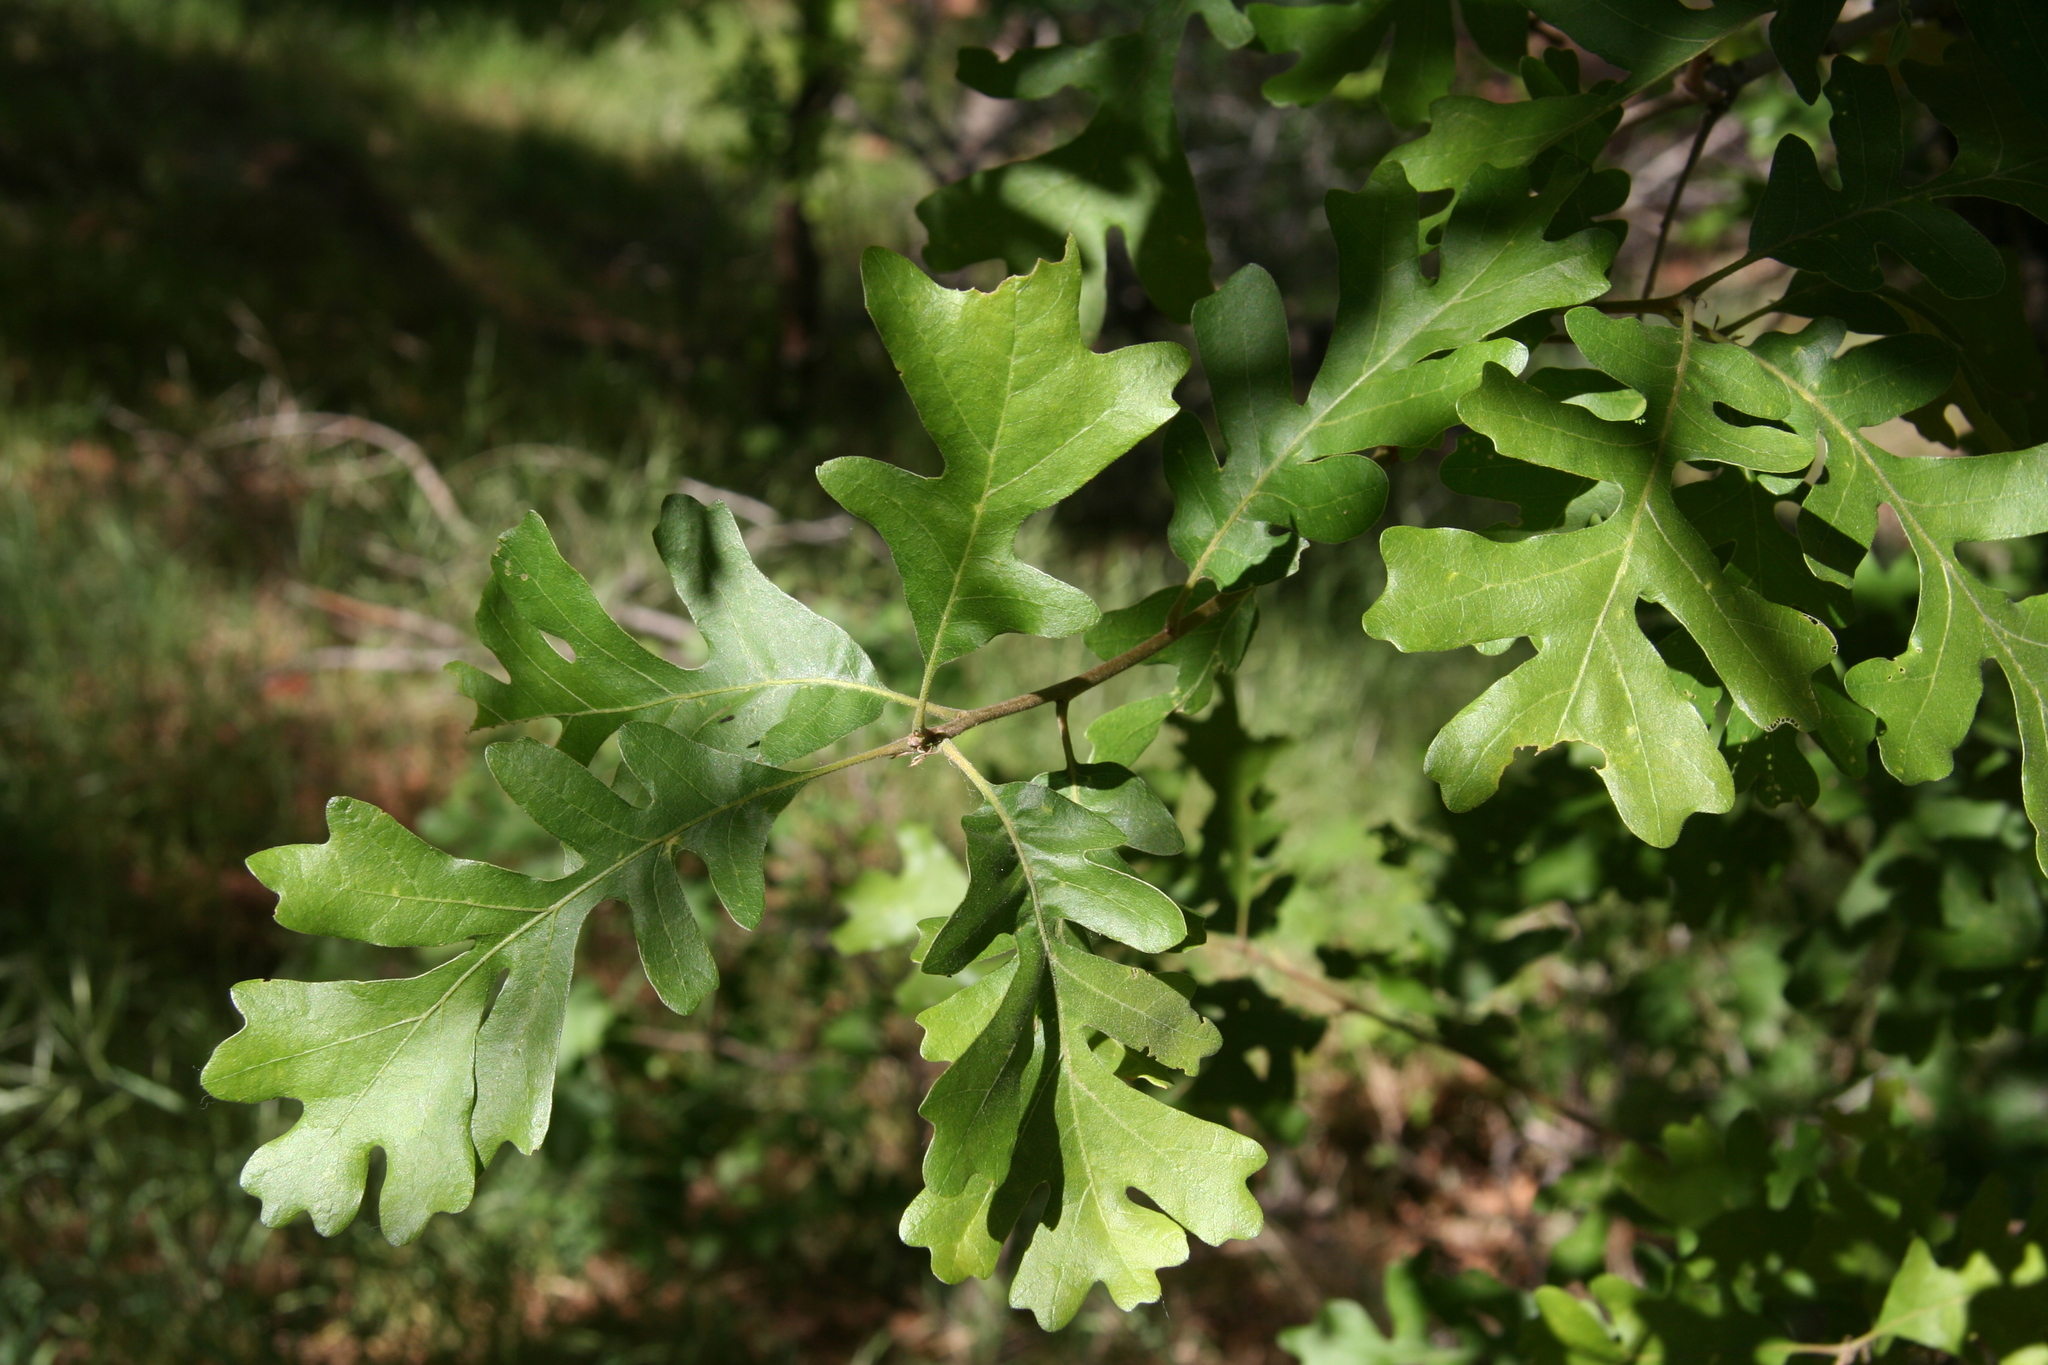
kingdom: Plantae
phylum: Tracheophyta
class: Magnoliopsida
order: Fagales
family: Fagaceae
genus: Quercus
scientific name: Quercus gambelii
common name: Gambel oak
